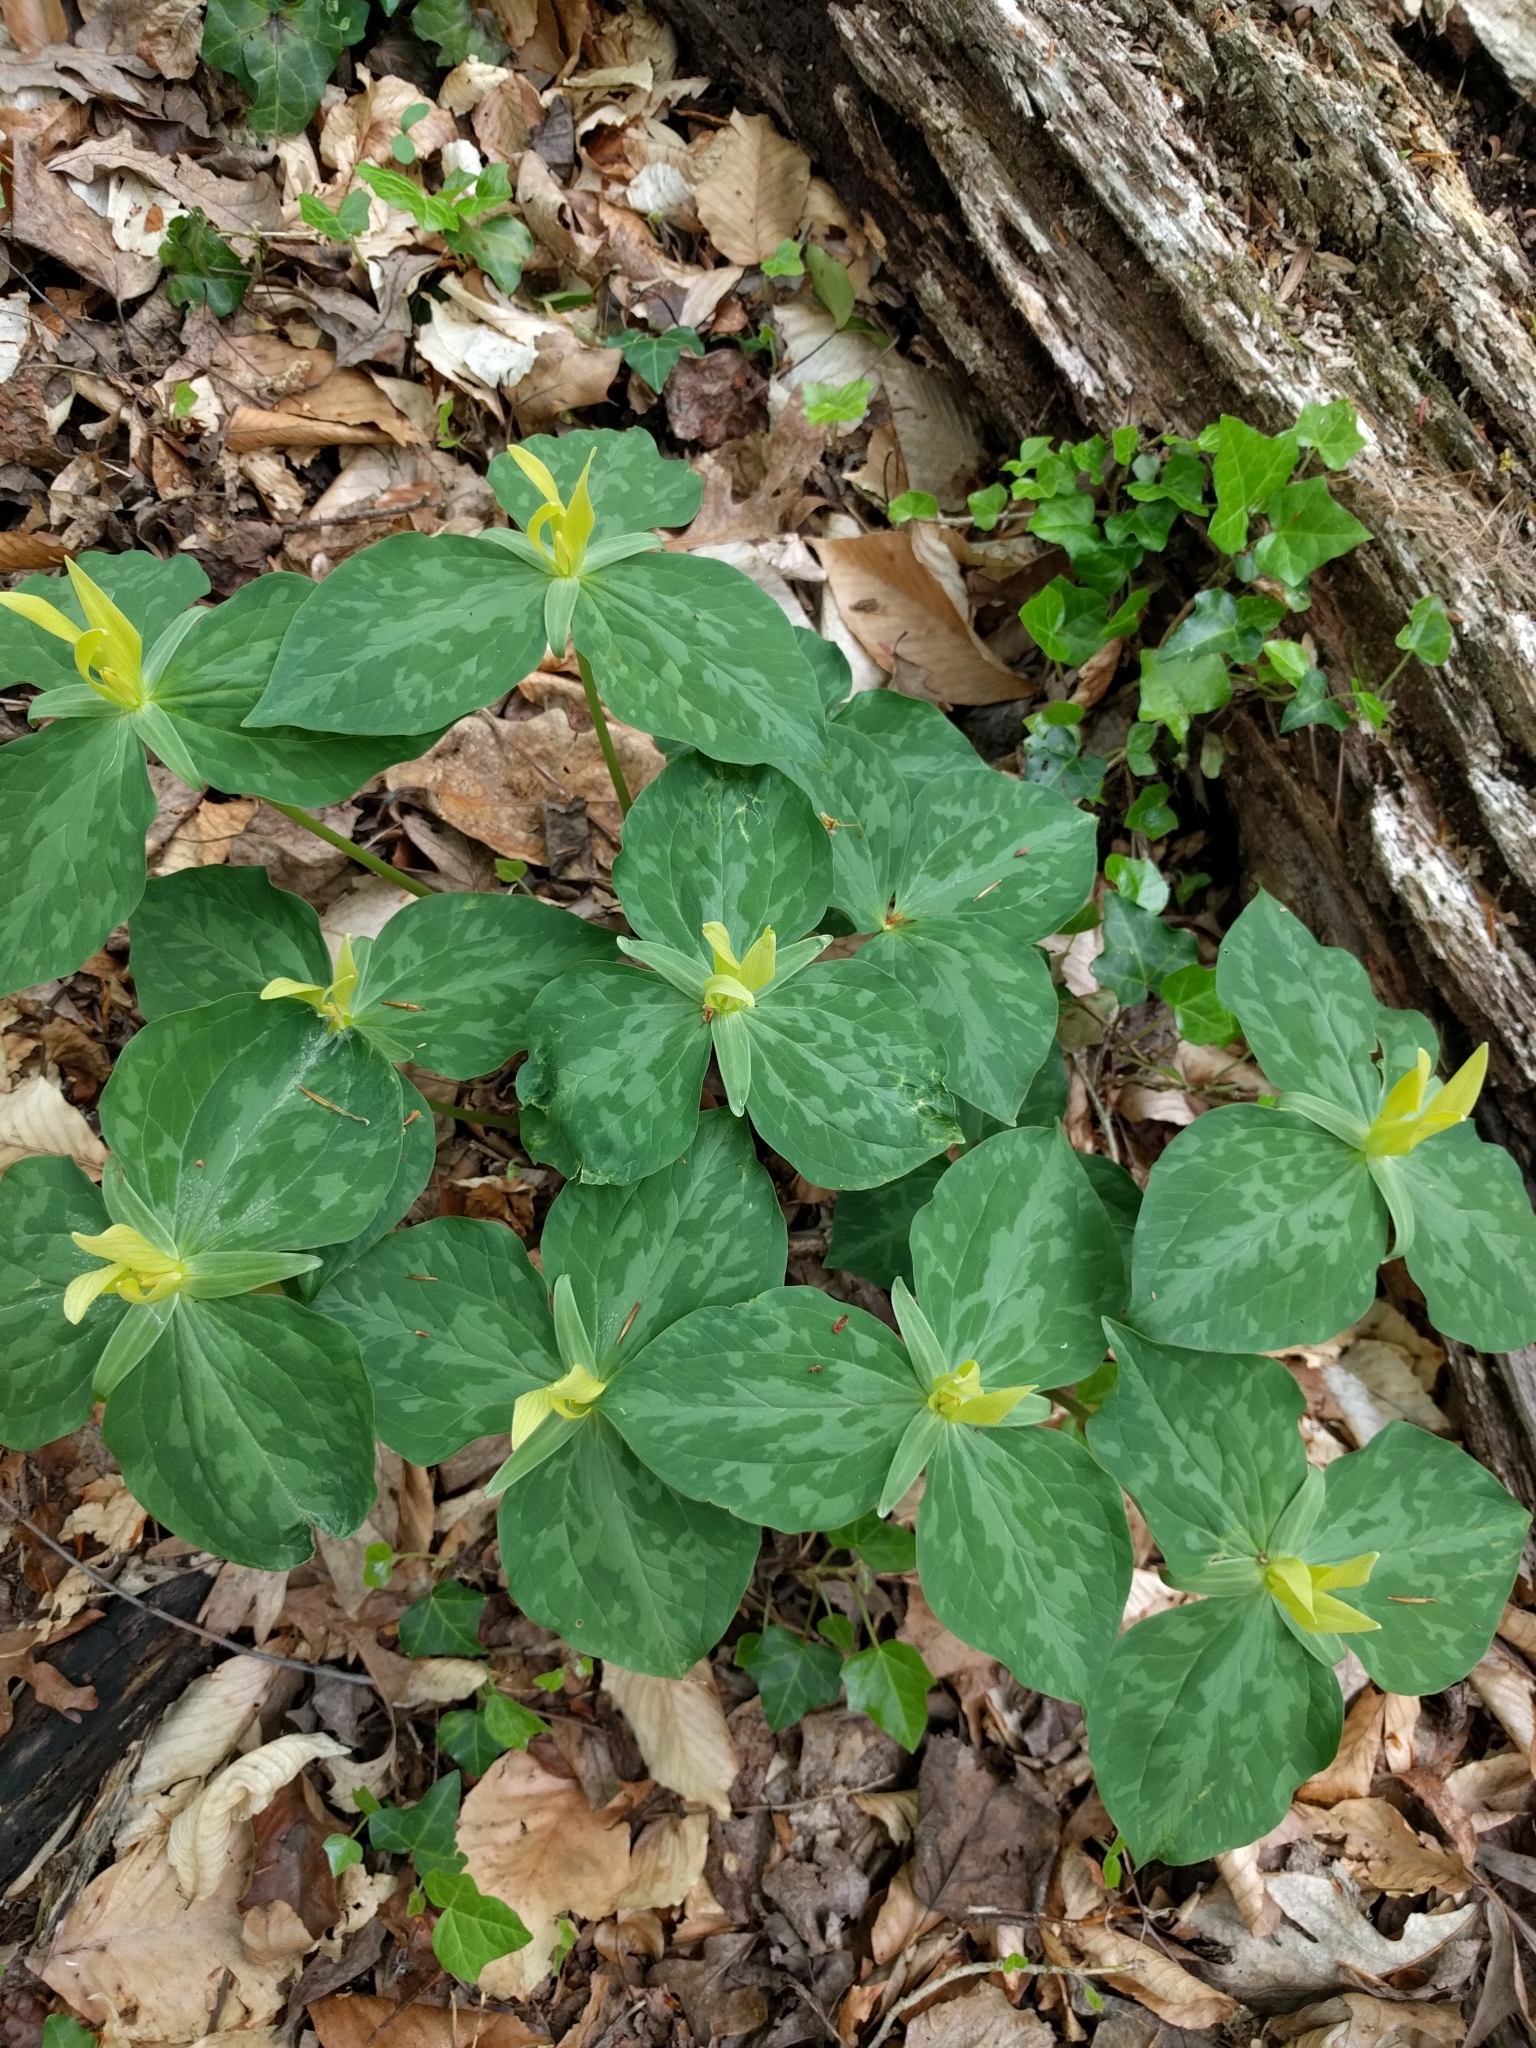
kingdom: Plantae
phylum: Tracheophyta
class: Liliopsida
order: Liliales
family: Melanthiaceae
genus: Trillium
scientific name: Trillium luteum
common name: Wax trillium
